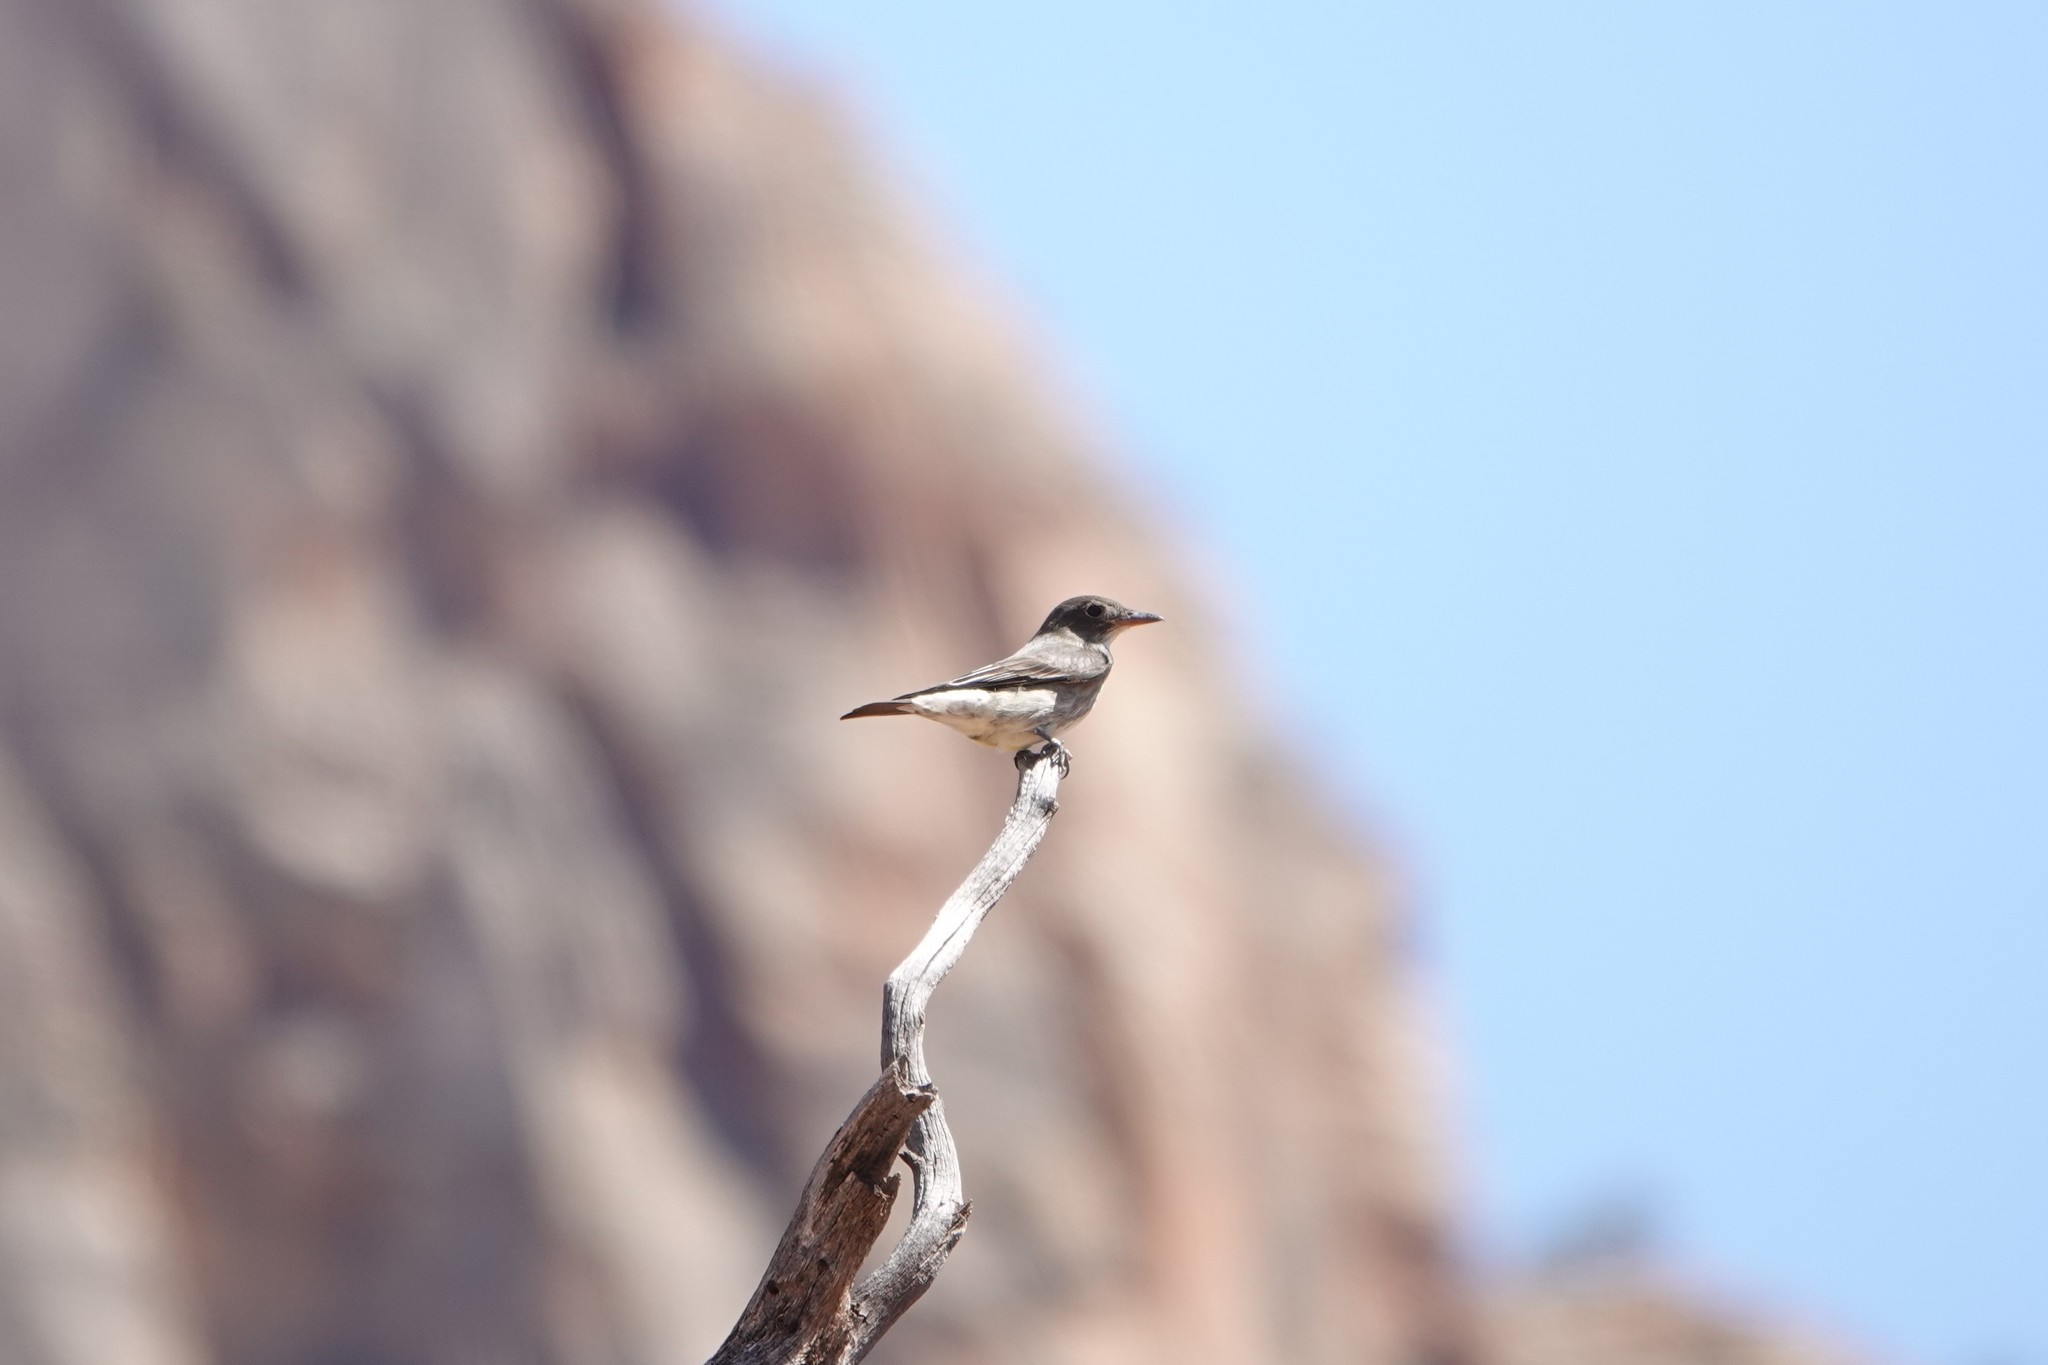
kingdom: Animalia
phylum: Chordata
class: Aves
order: Passeriformes
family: Tyrannidae
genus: Contopus
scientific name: Contopus cooperi
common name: Olive-sided flycatcher
